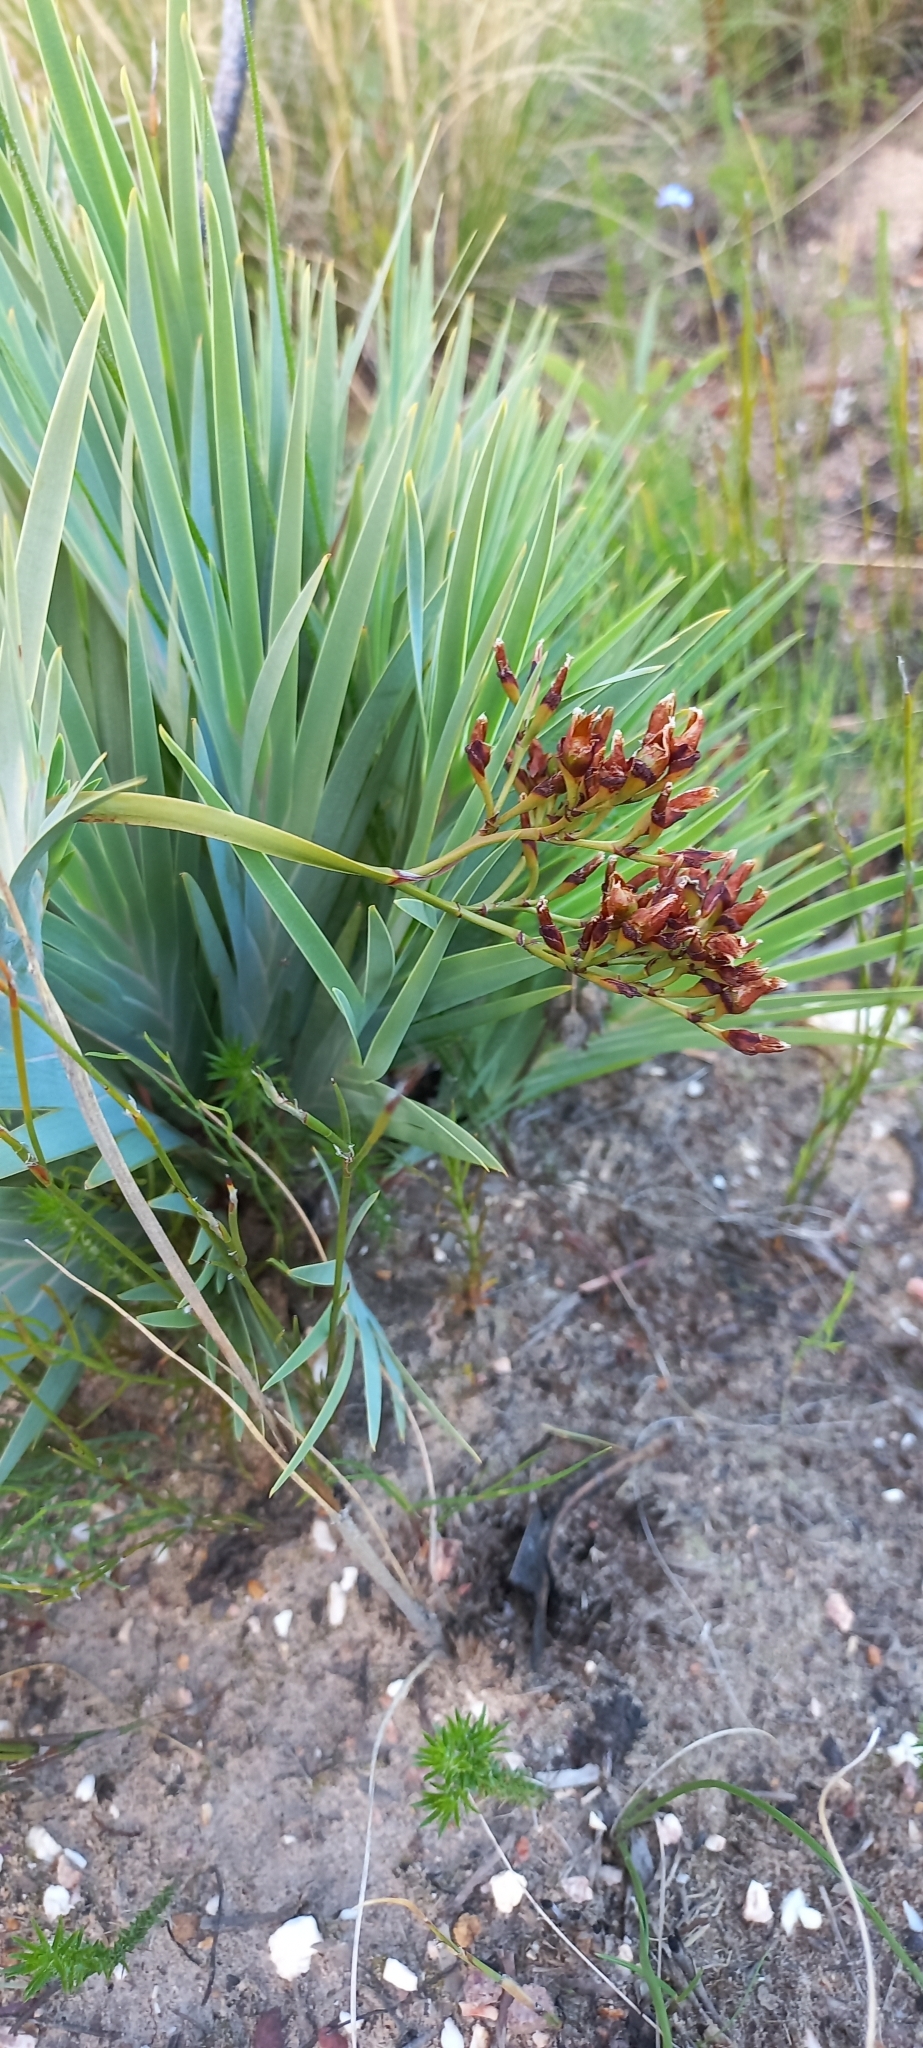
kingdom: Plantae
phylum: Tracheophyta
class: Liliopsida
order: Asparagales
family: Iridaceae
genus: Nivenia
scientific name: Nivenia stokoei
